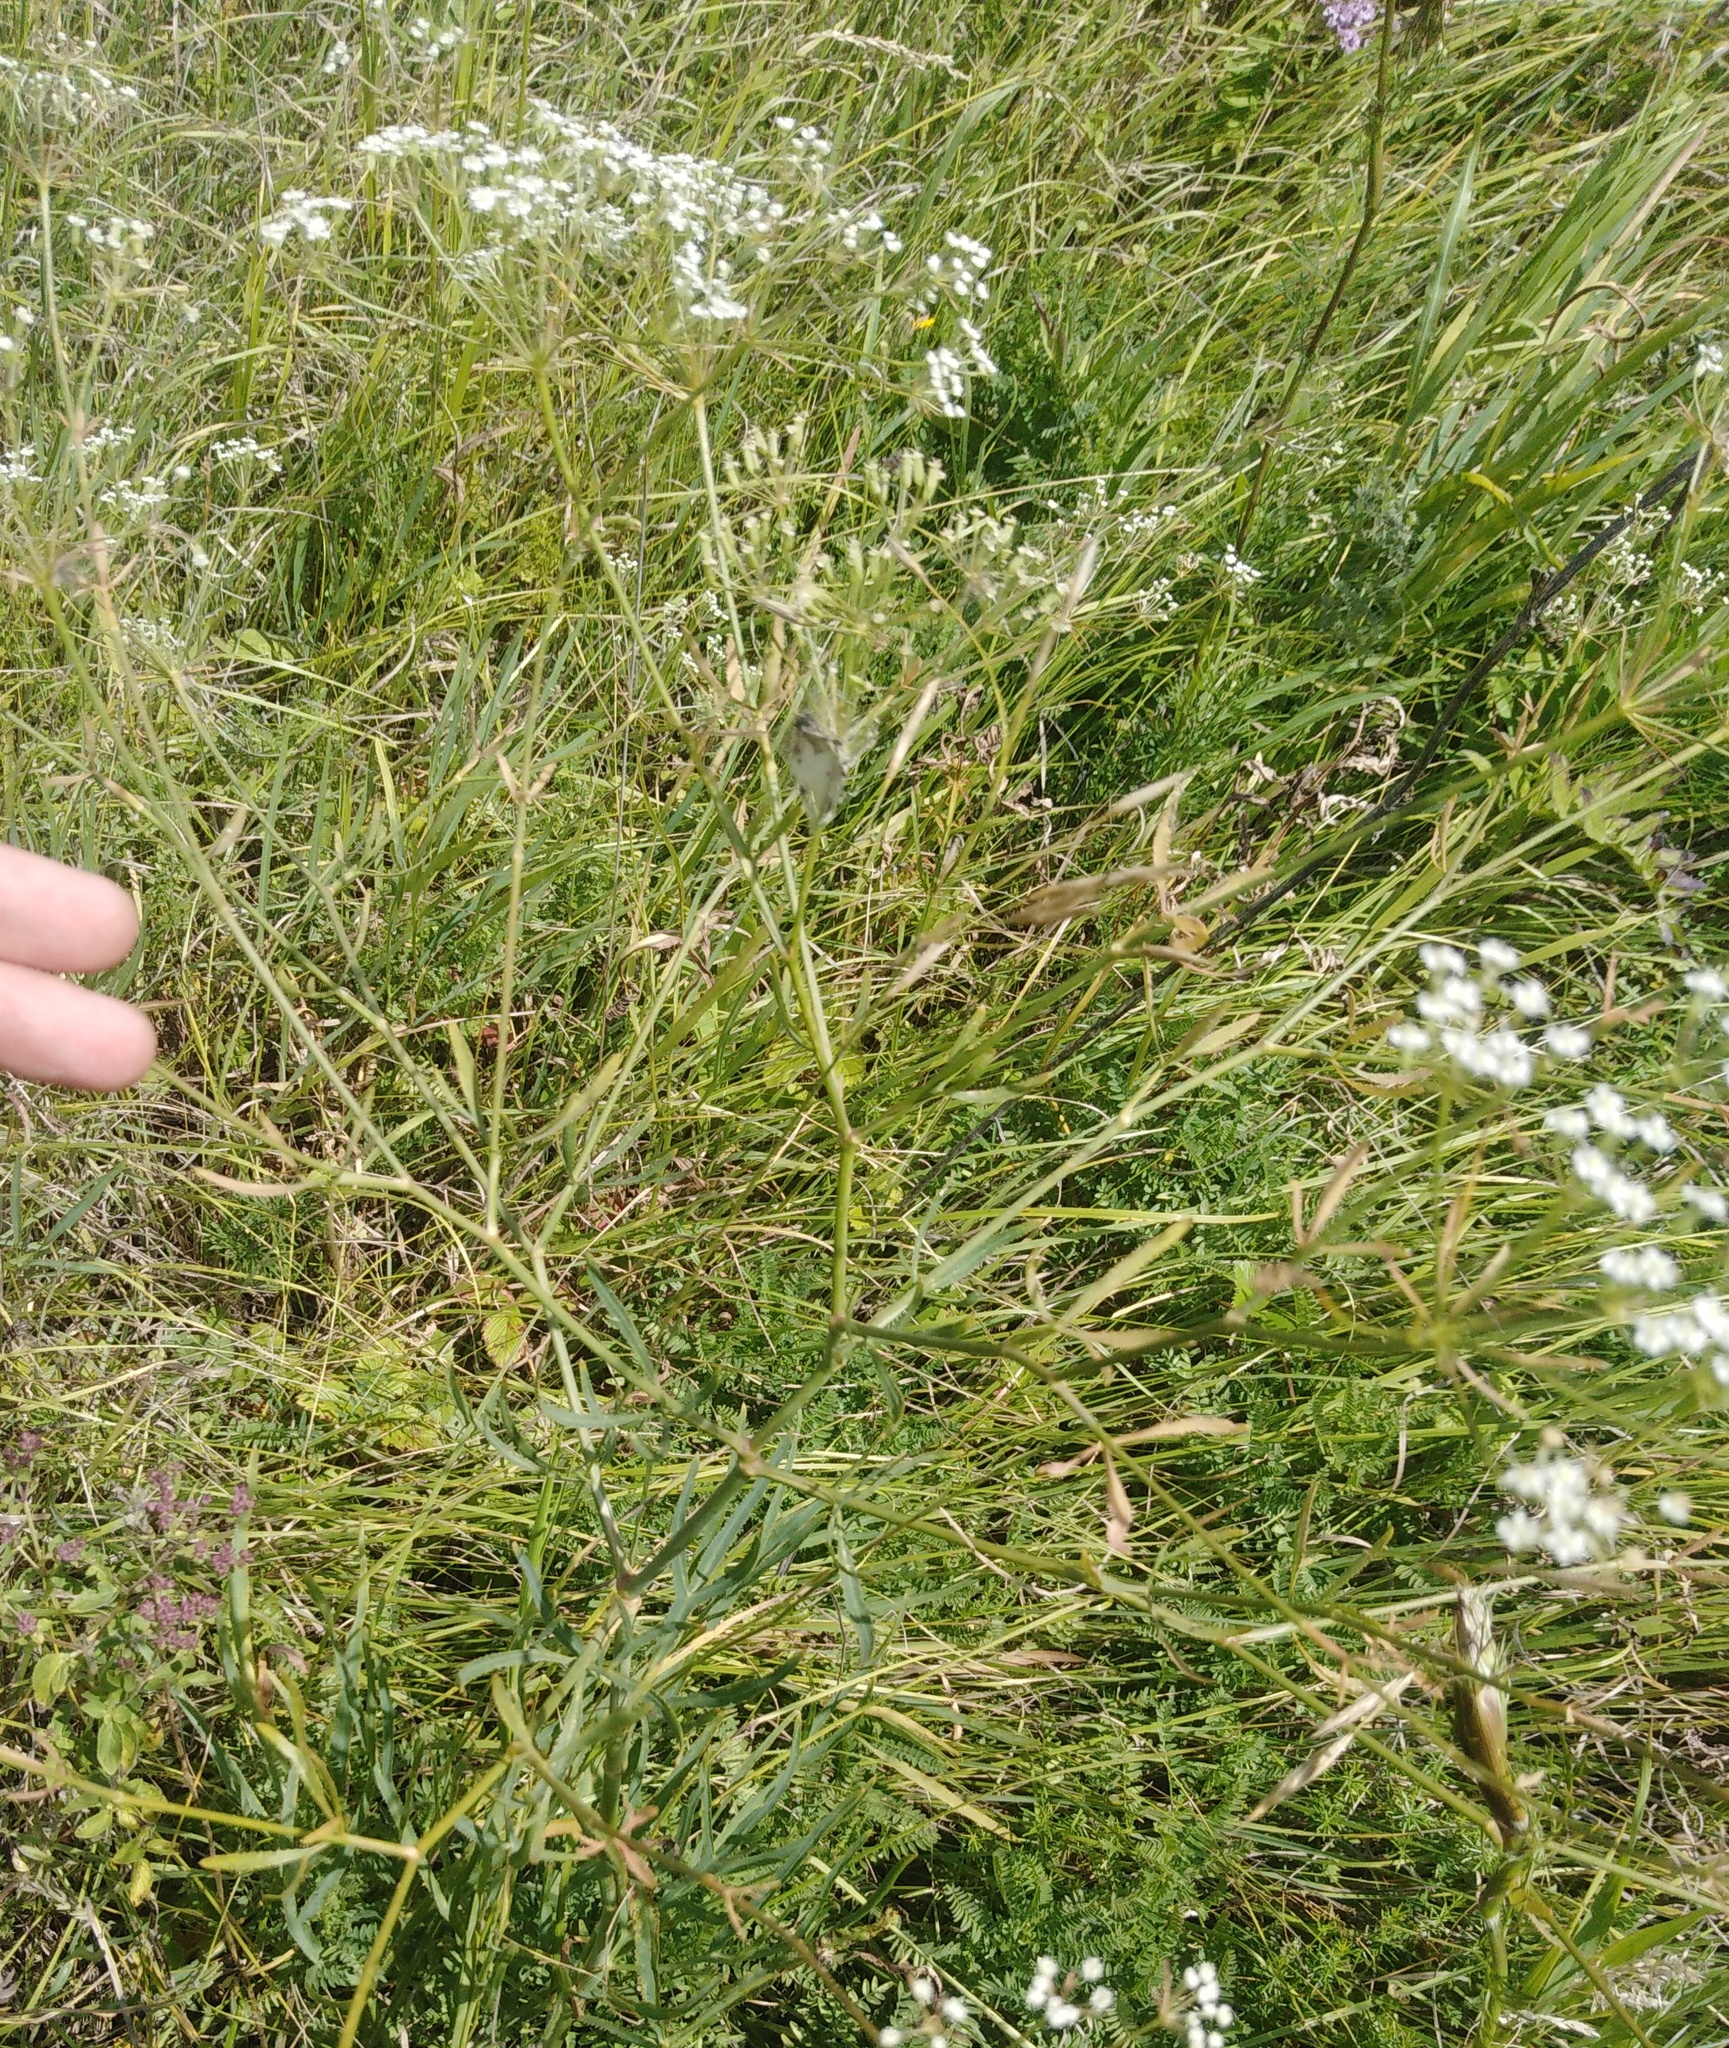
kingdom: Plantae
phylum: Tracheophyta
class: Magnoliopsida
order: Apiales
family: Apiaceae
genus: Falcaria
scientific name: Falcaria vulgaris
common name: Longleaf
